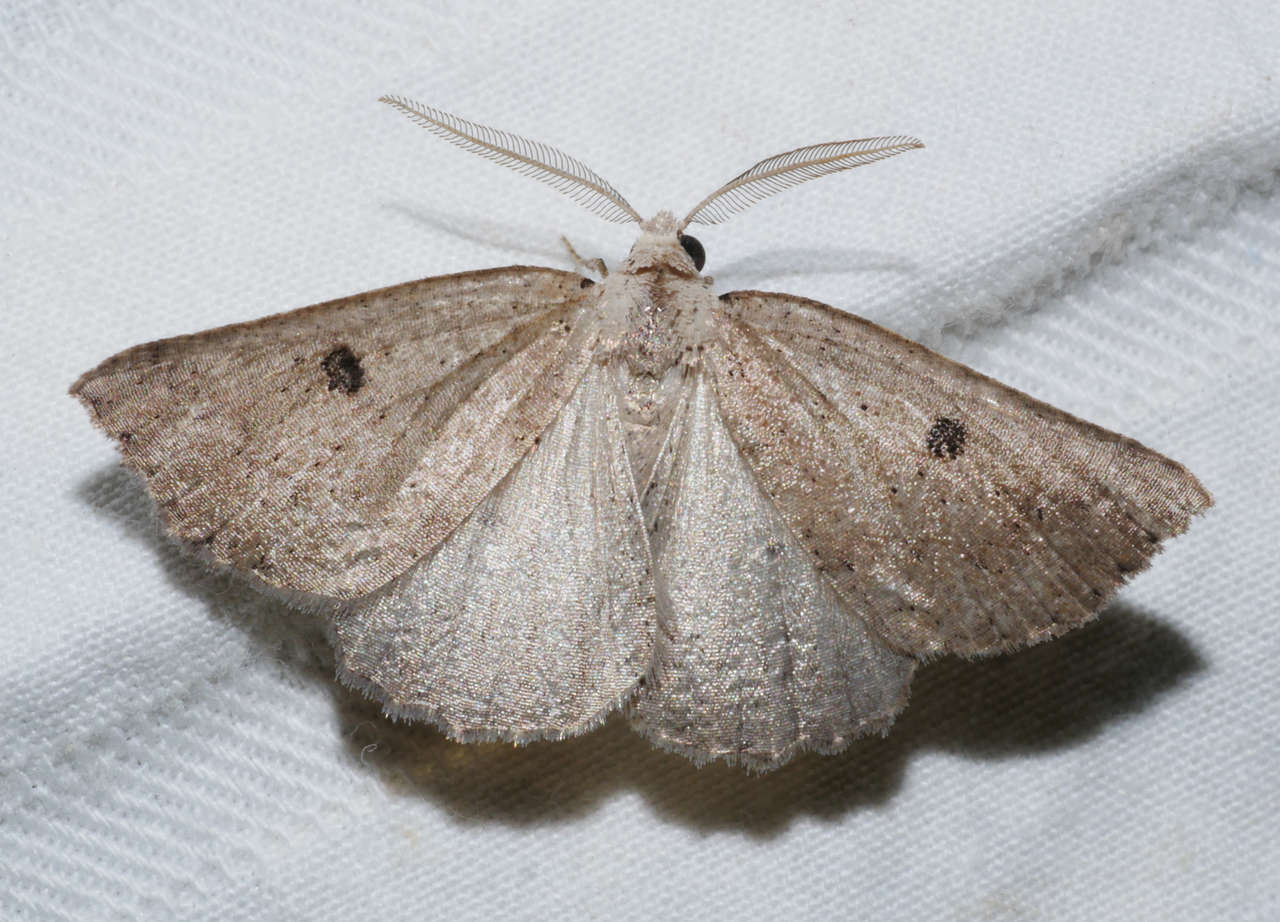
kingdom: Animalia
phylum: Arthropoda
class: Insecta
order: Lepidoptera
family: Geometridae
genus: Amelora
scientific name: Amelora demistis
